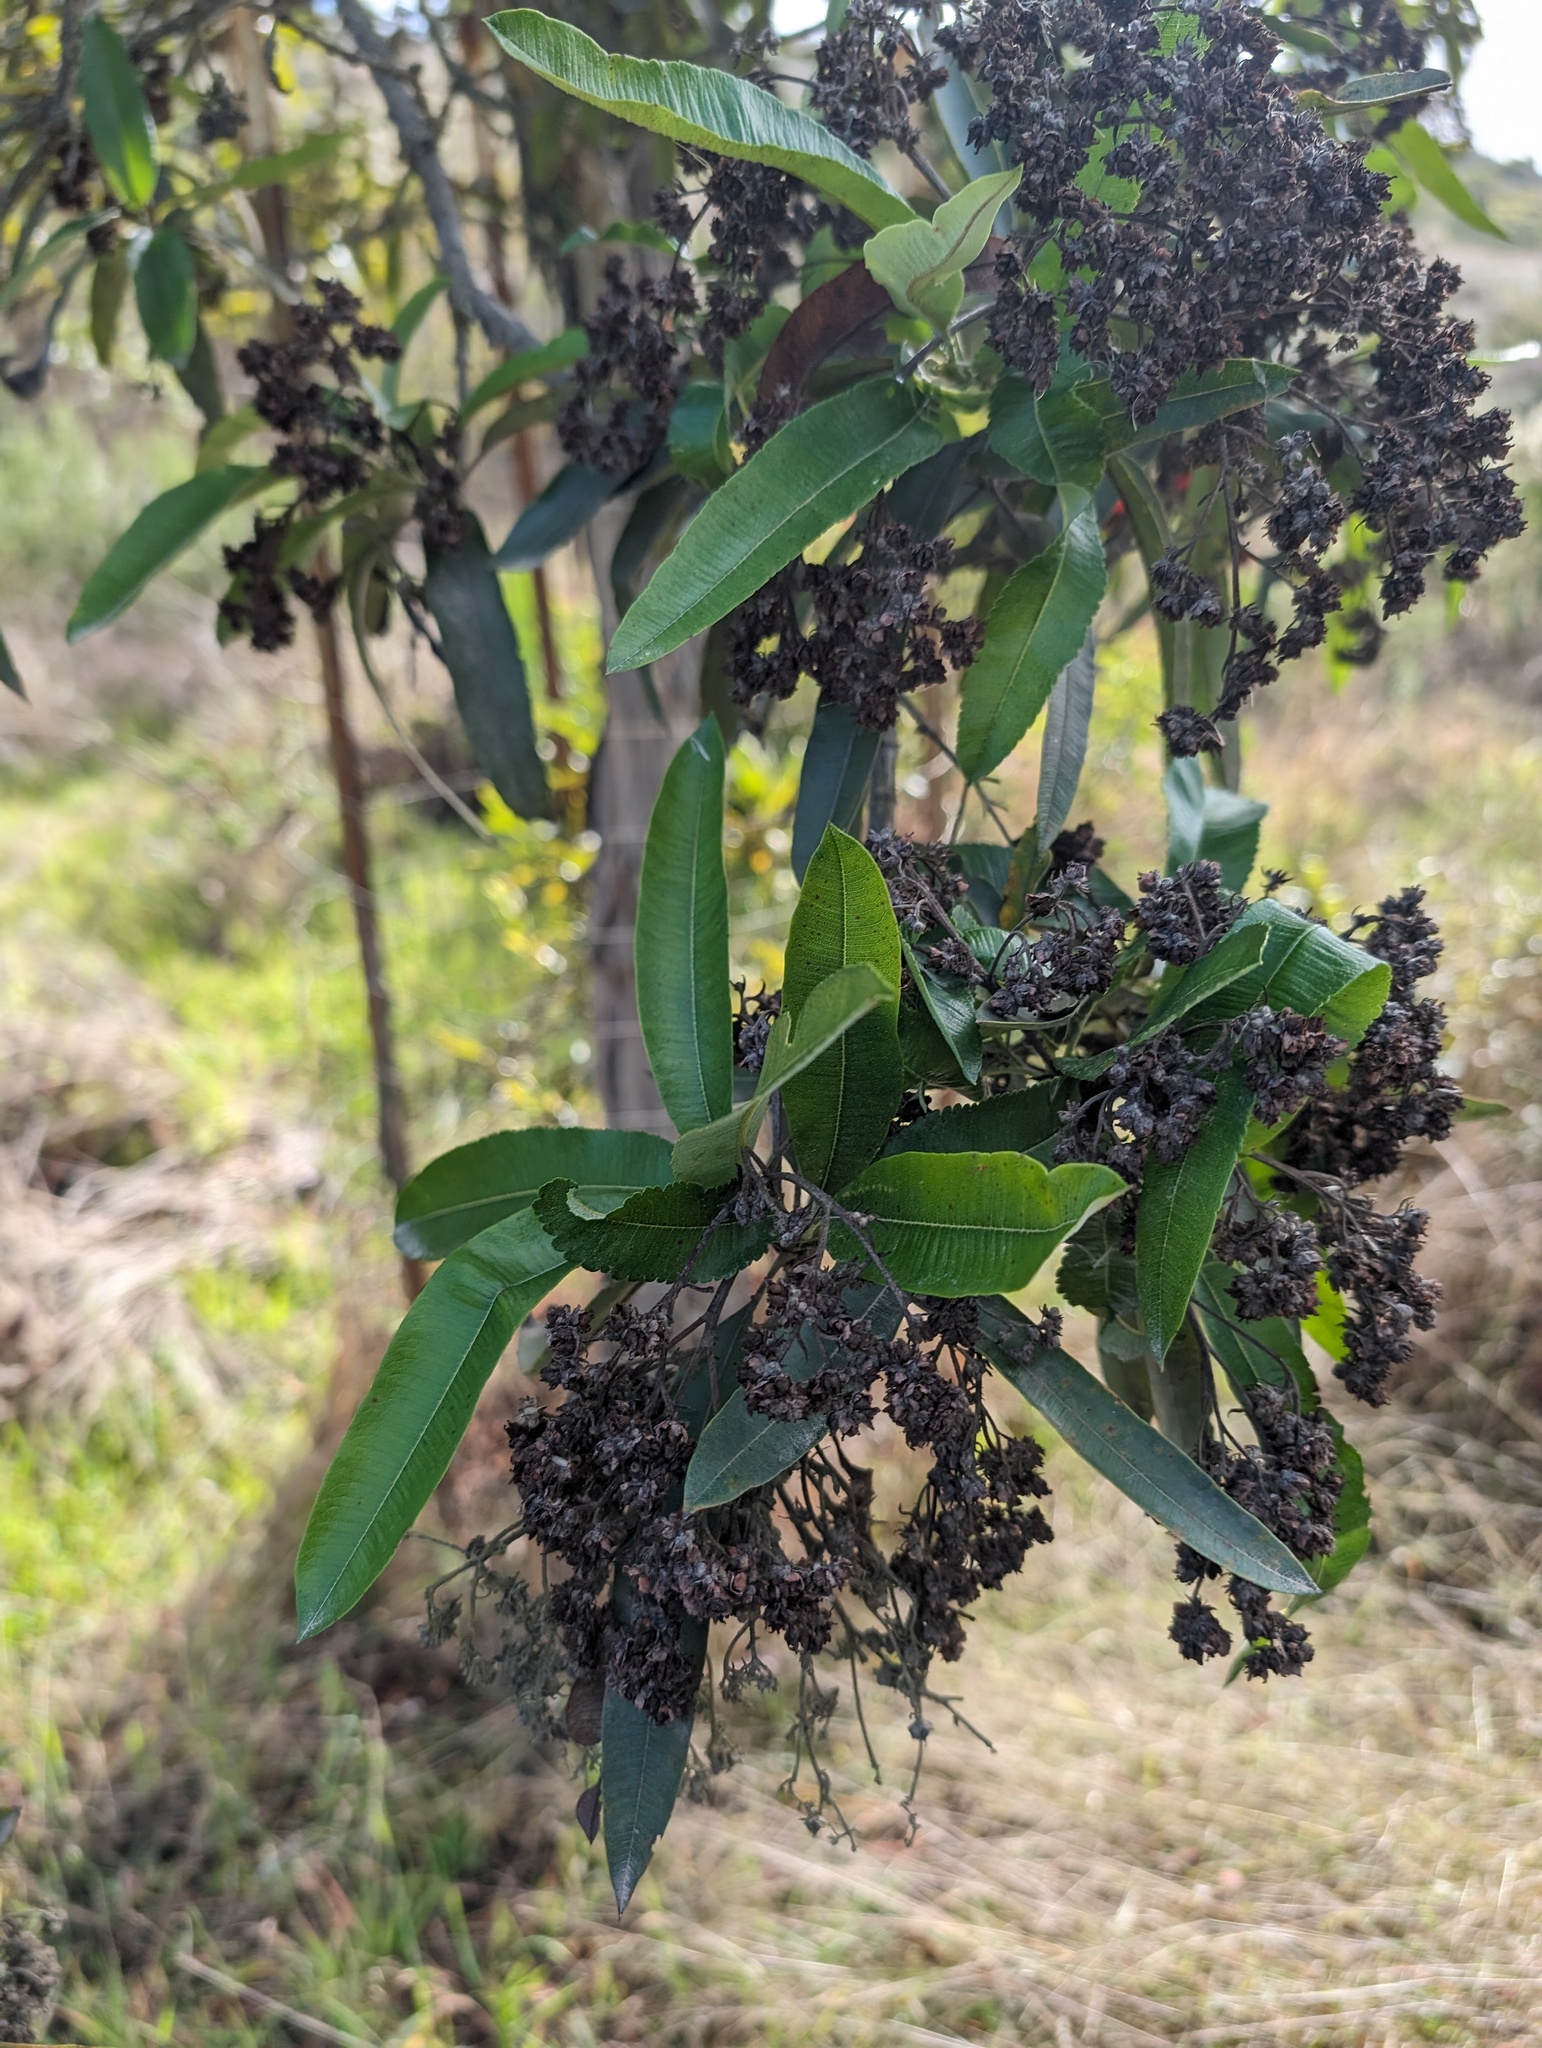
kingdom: Plantae
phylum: Tracheophyta
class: Magnoliopsida
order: Rosales
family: Rosaceae
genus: Lyonothamnus
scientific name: Lyonothamnus floribundus
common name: Catalina ironwood
